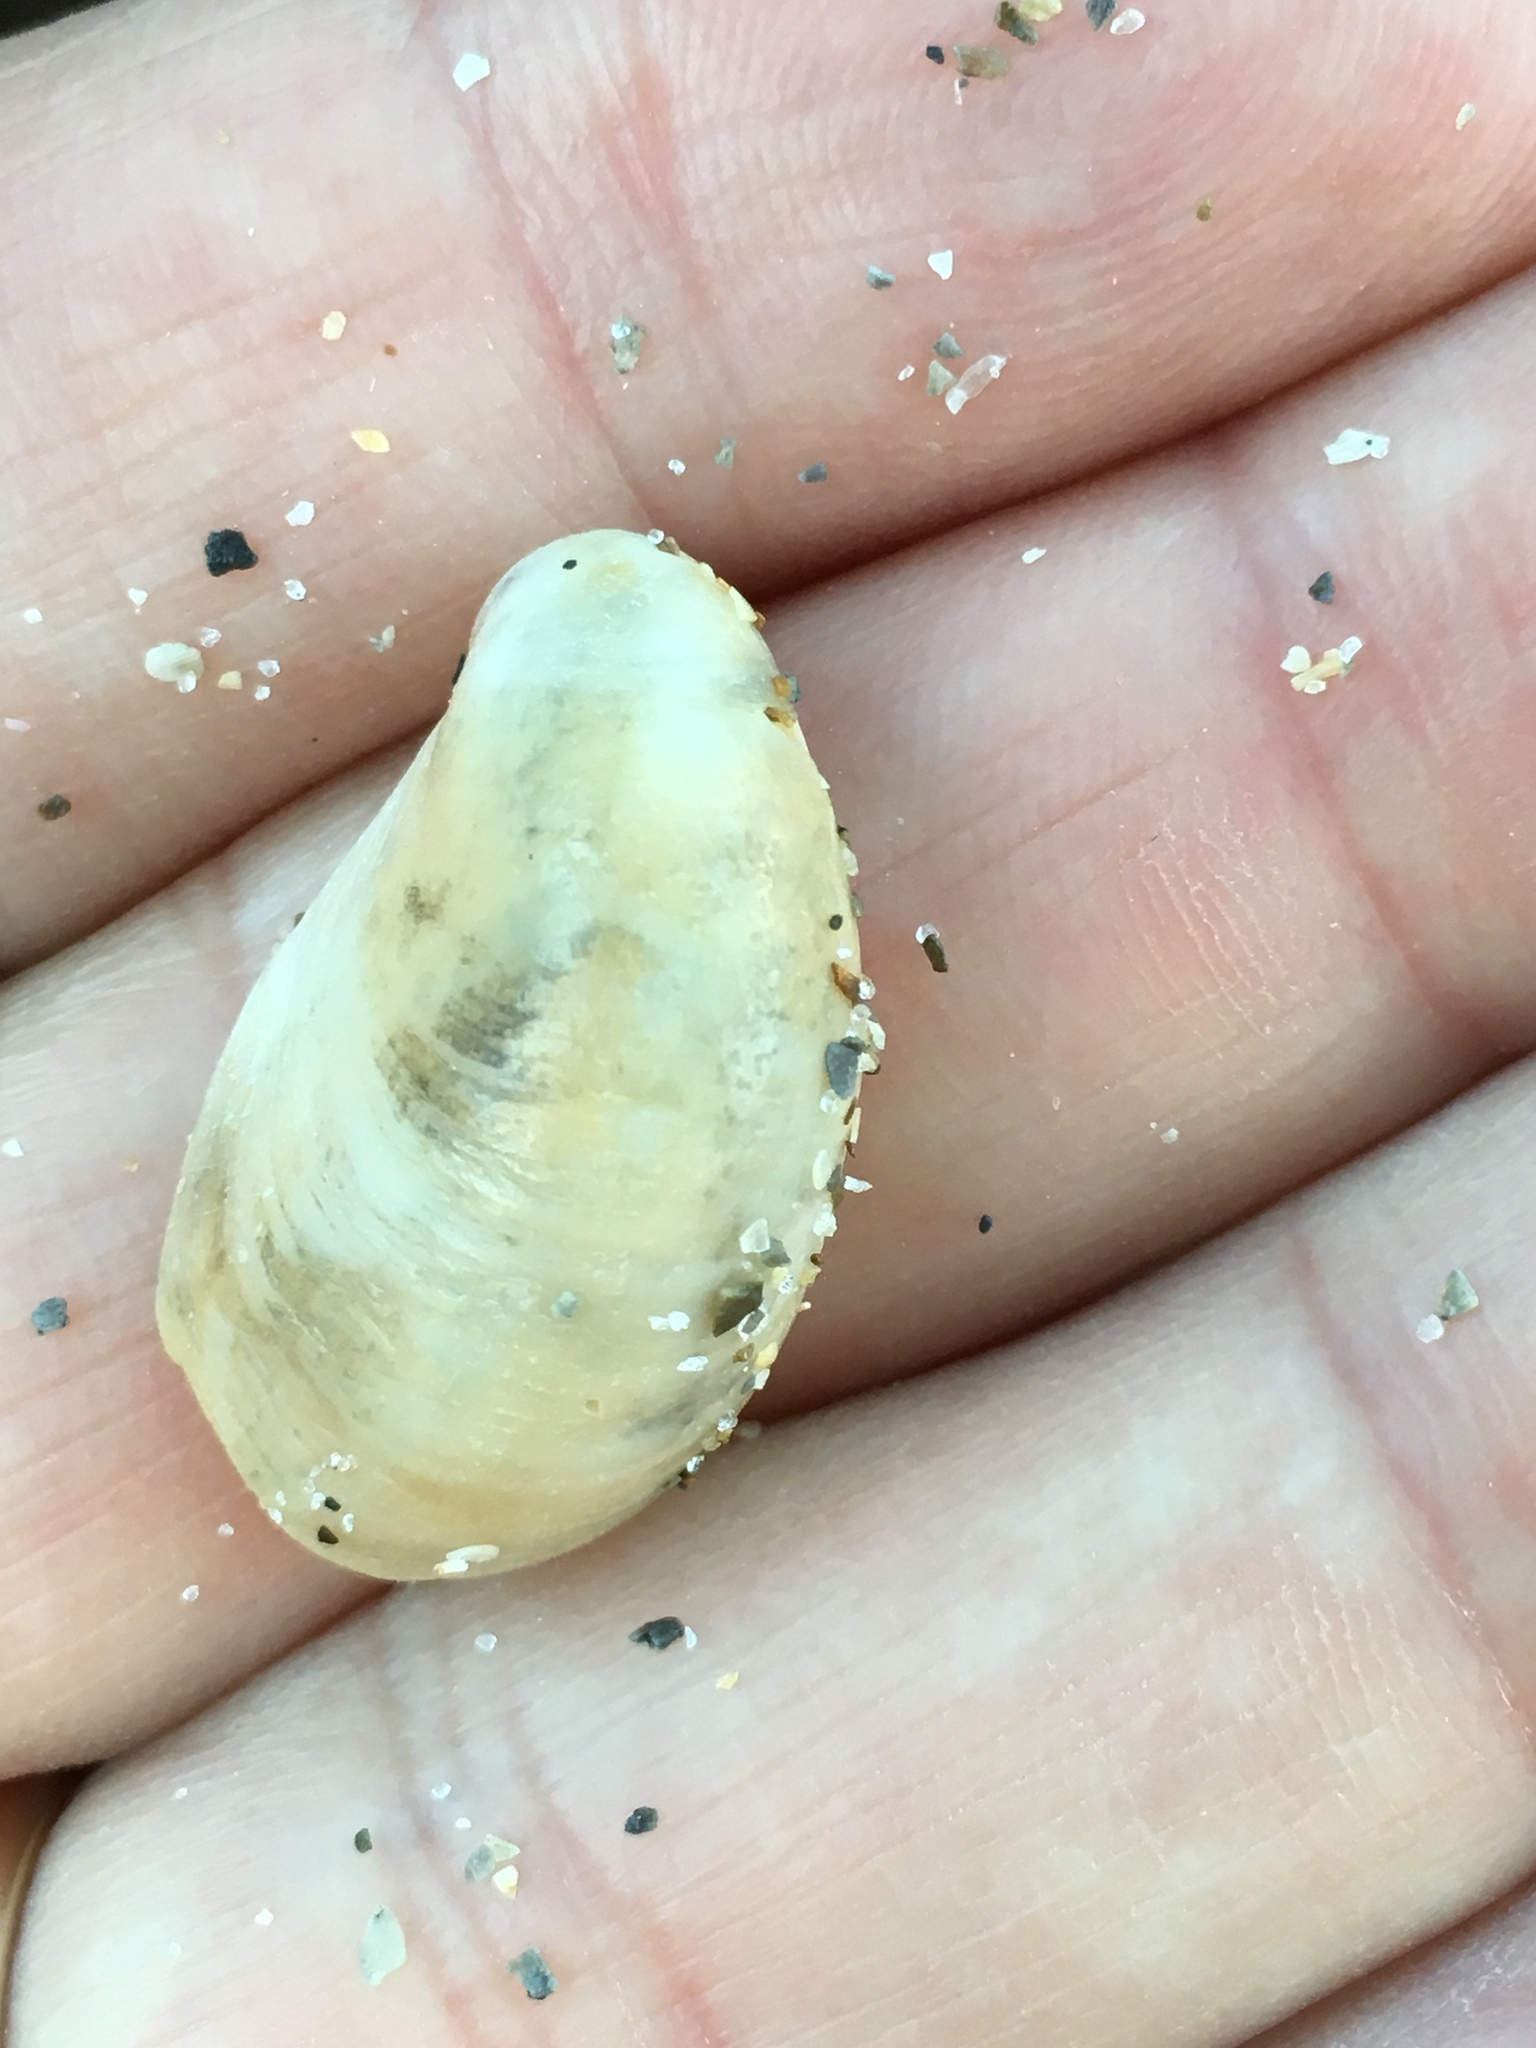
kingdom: Animalia
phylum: Mollusca
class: Gastropoda
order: Littorinimorpha
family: Calyptraeidae
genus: Crepidula
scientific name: Crepidula fornicata
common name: Slipper limpet
